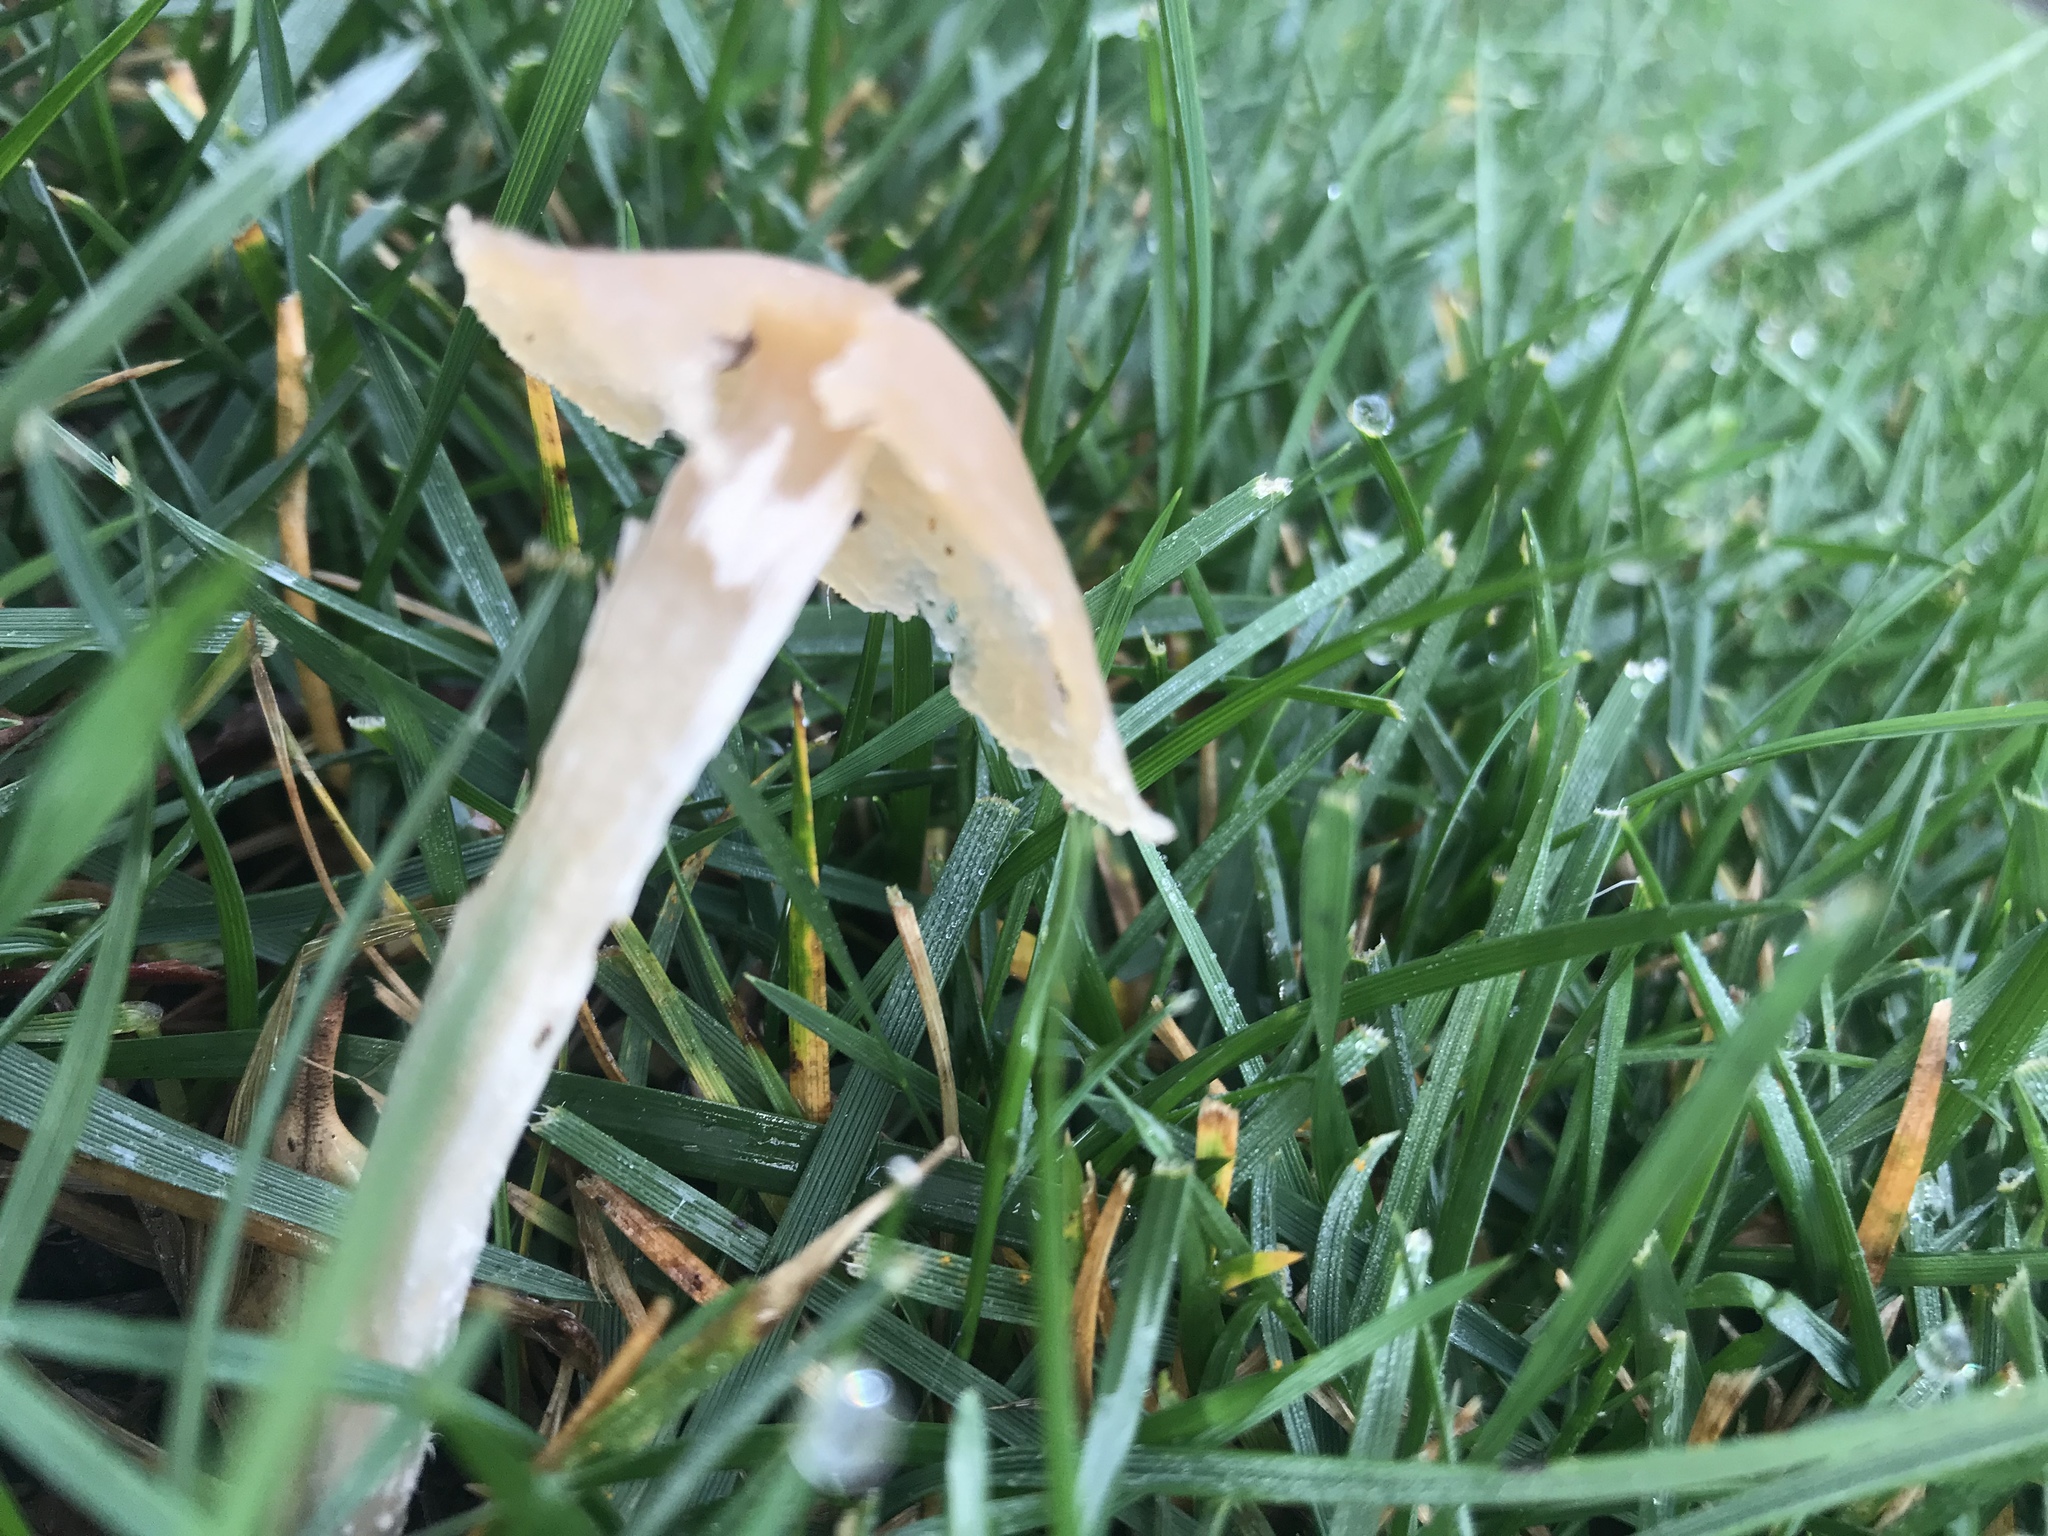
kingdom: Fungi
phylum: Basidiomycota
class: Agaricomycetes
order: Agaricales
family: Psathyrellaceae
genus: Candolleomyces
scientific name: Candolleomyces candolleanus
